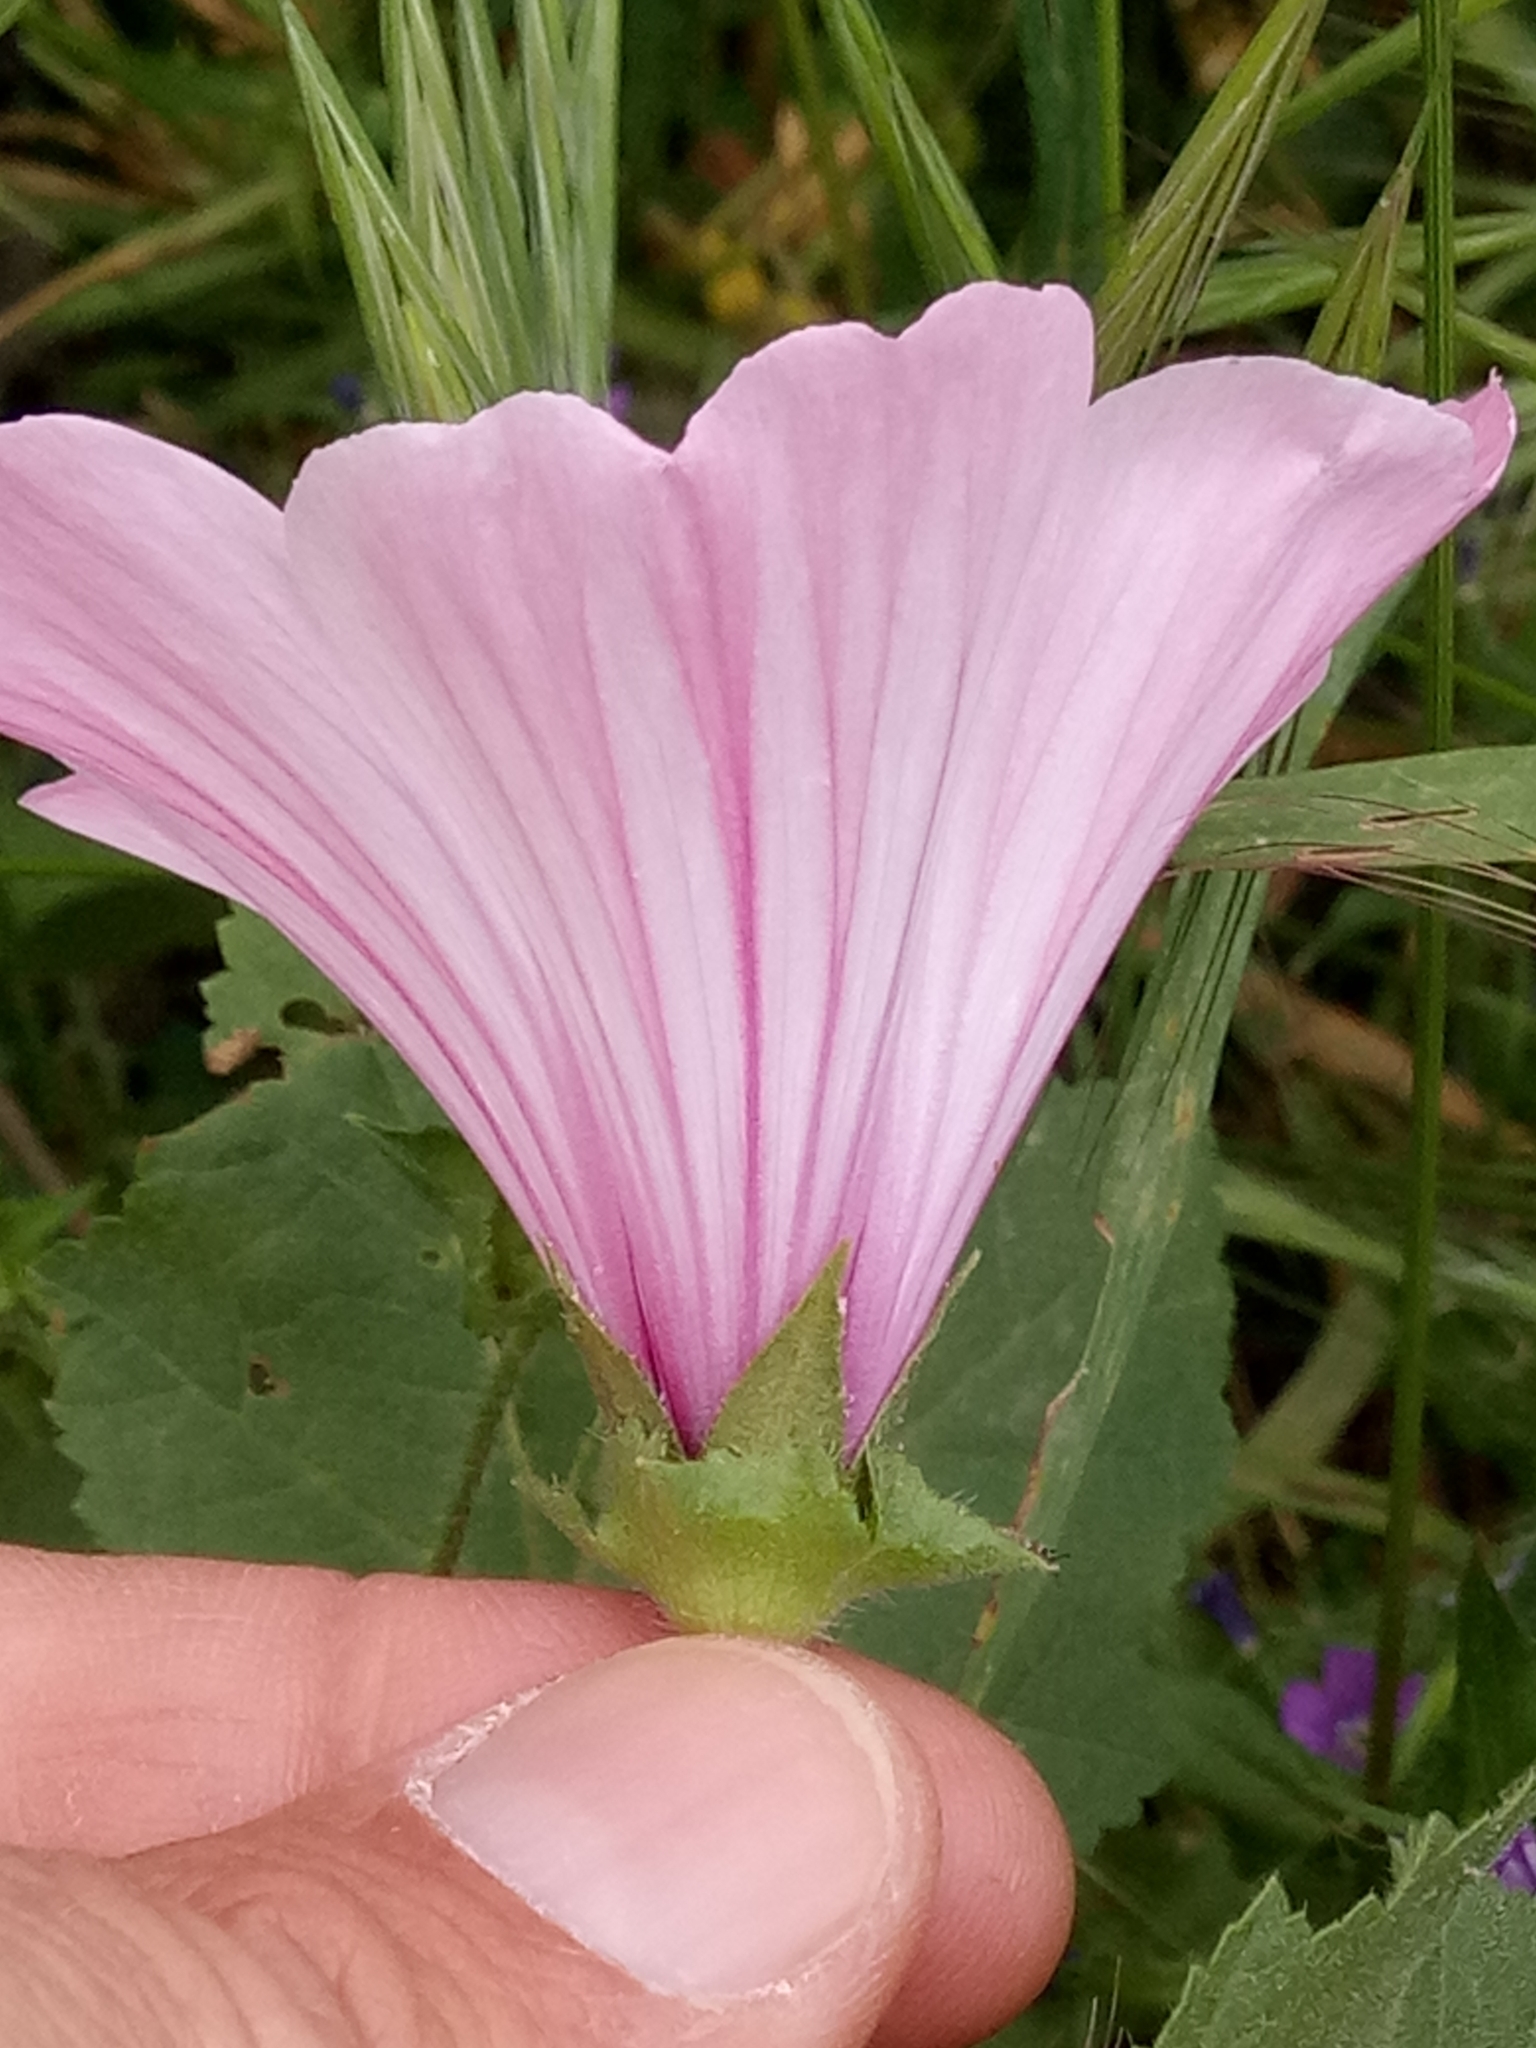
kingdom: Plantae
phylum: Tracheophyta
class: Magnoliopsida
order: Malvales
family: Malvaceae
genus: Malva
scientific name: Malva trimestris
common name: Royal mallow
